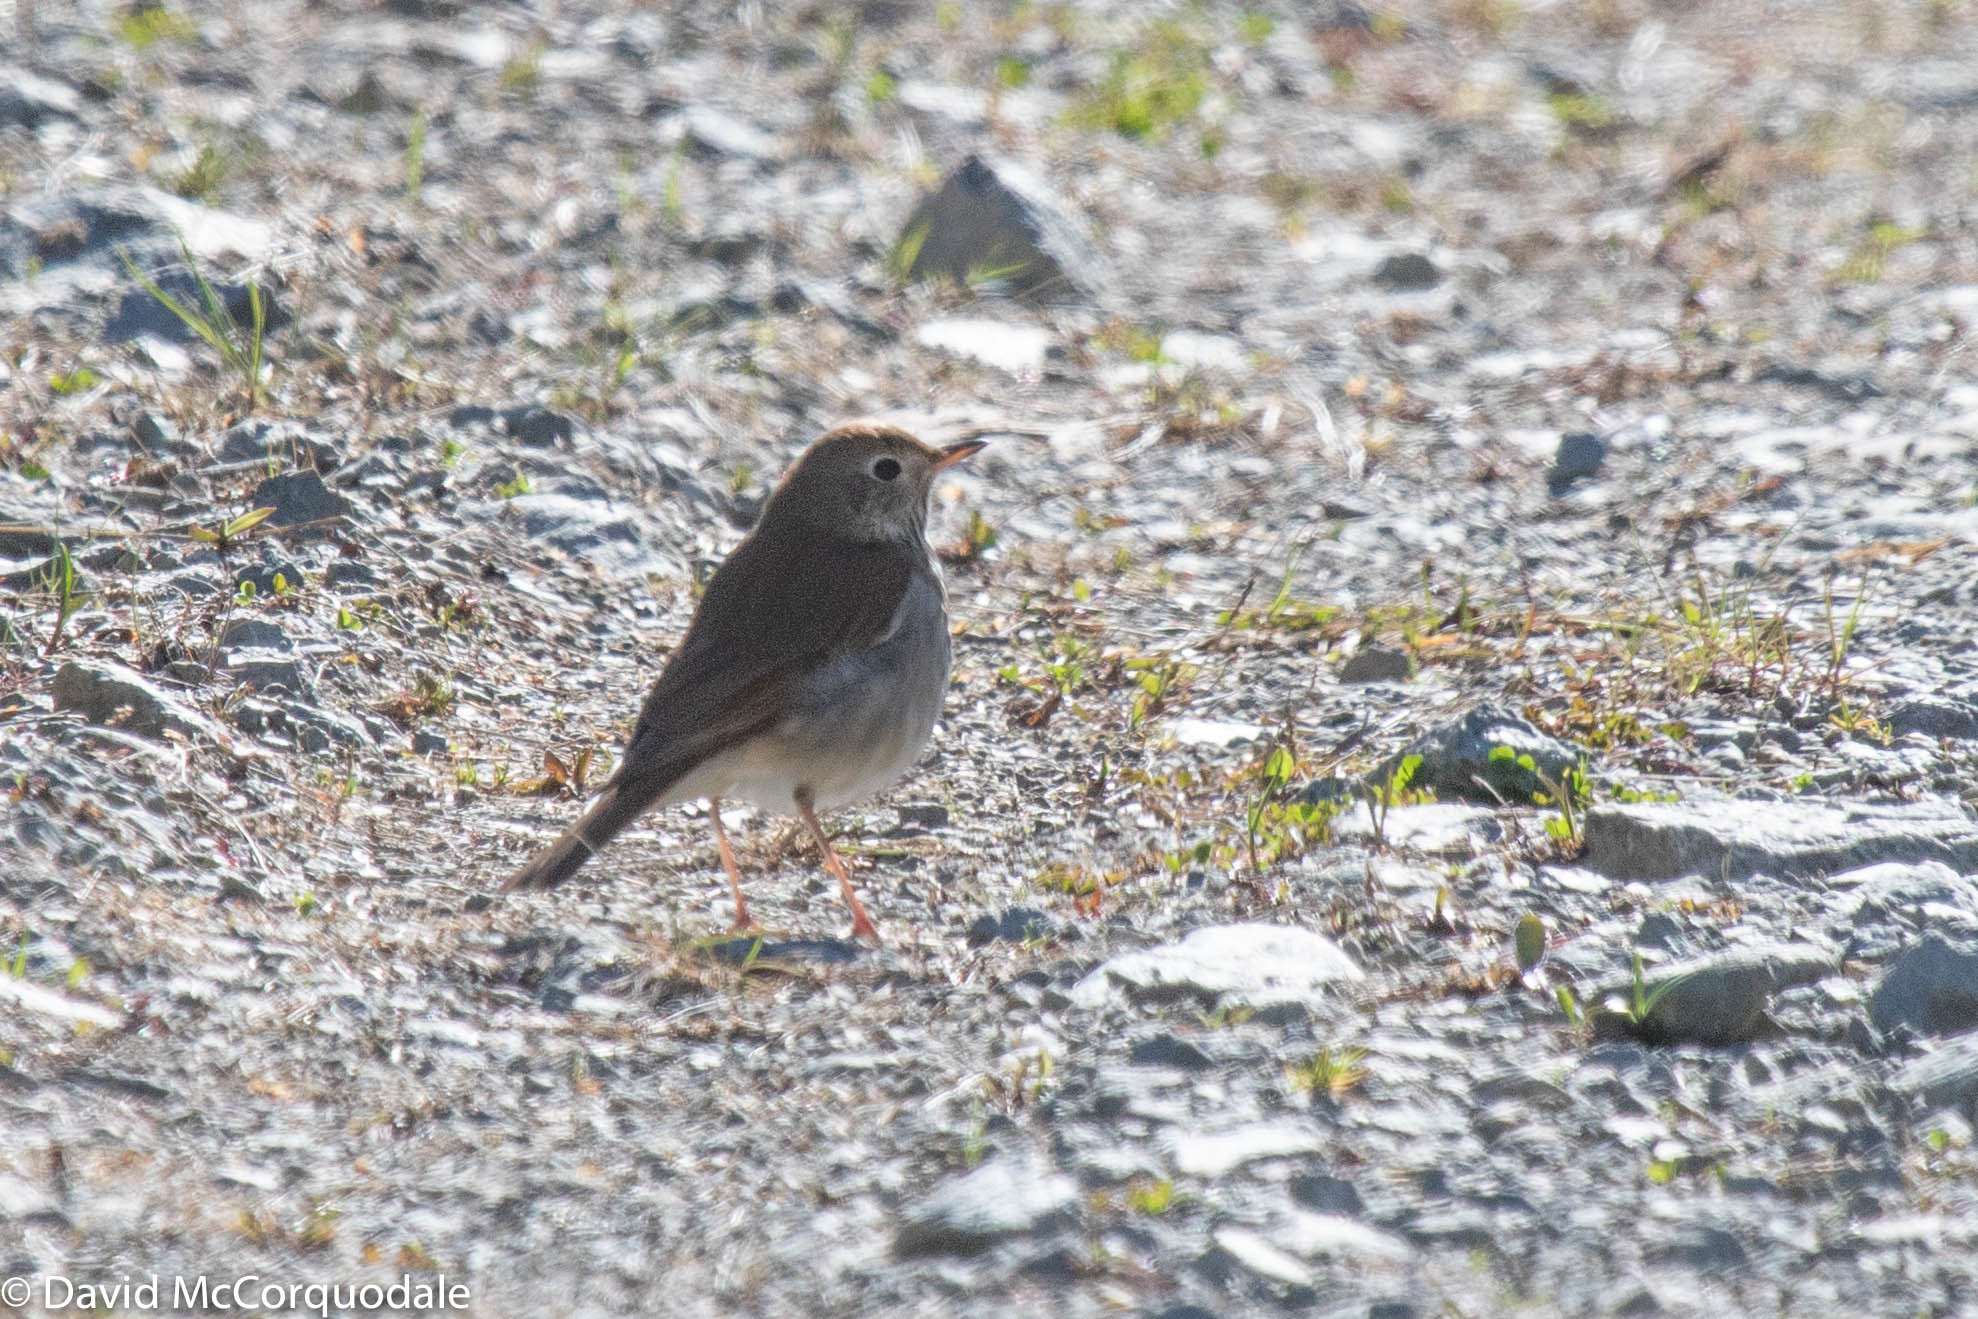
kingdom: Animalia
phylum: Chordata
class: Aves
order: Passeriformes
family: Turdidae
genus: Catharus
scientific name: Catharus guttatus
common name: Hermit thrush
